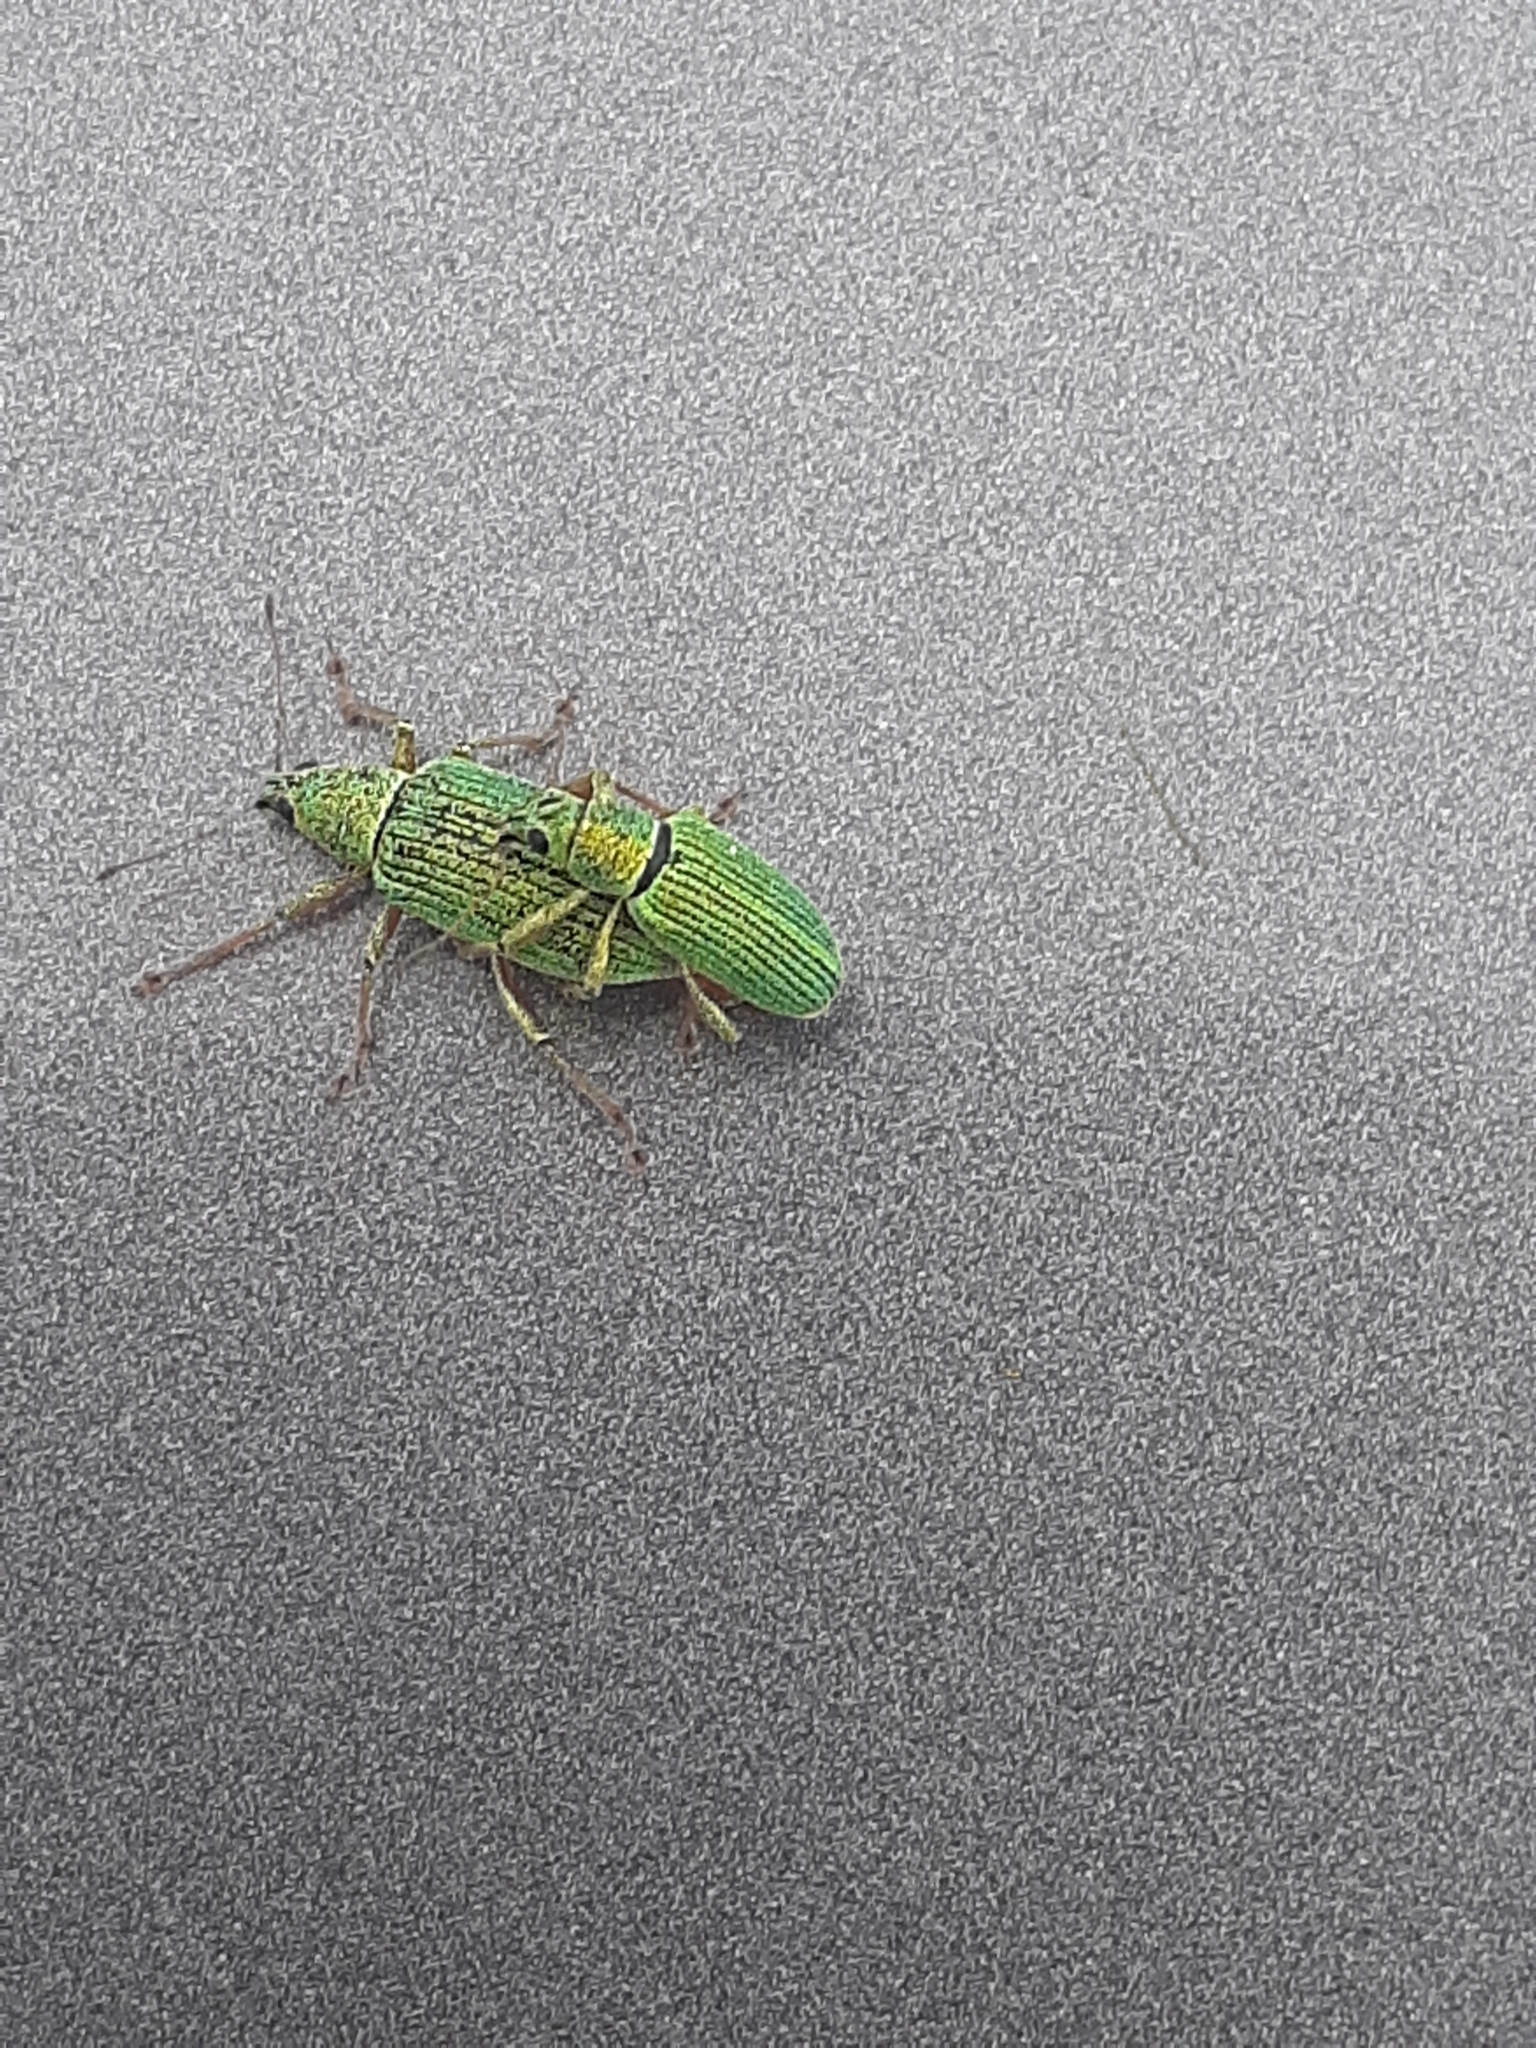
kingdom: Animalia
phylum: Arthropoda
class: Insecta
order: Coleoptera
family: Curculionidae
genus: Polydrusus
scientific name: Polydrusus formosus
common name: Weevil
